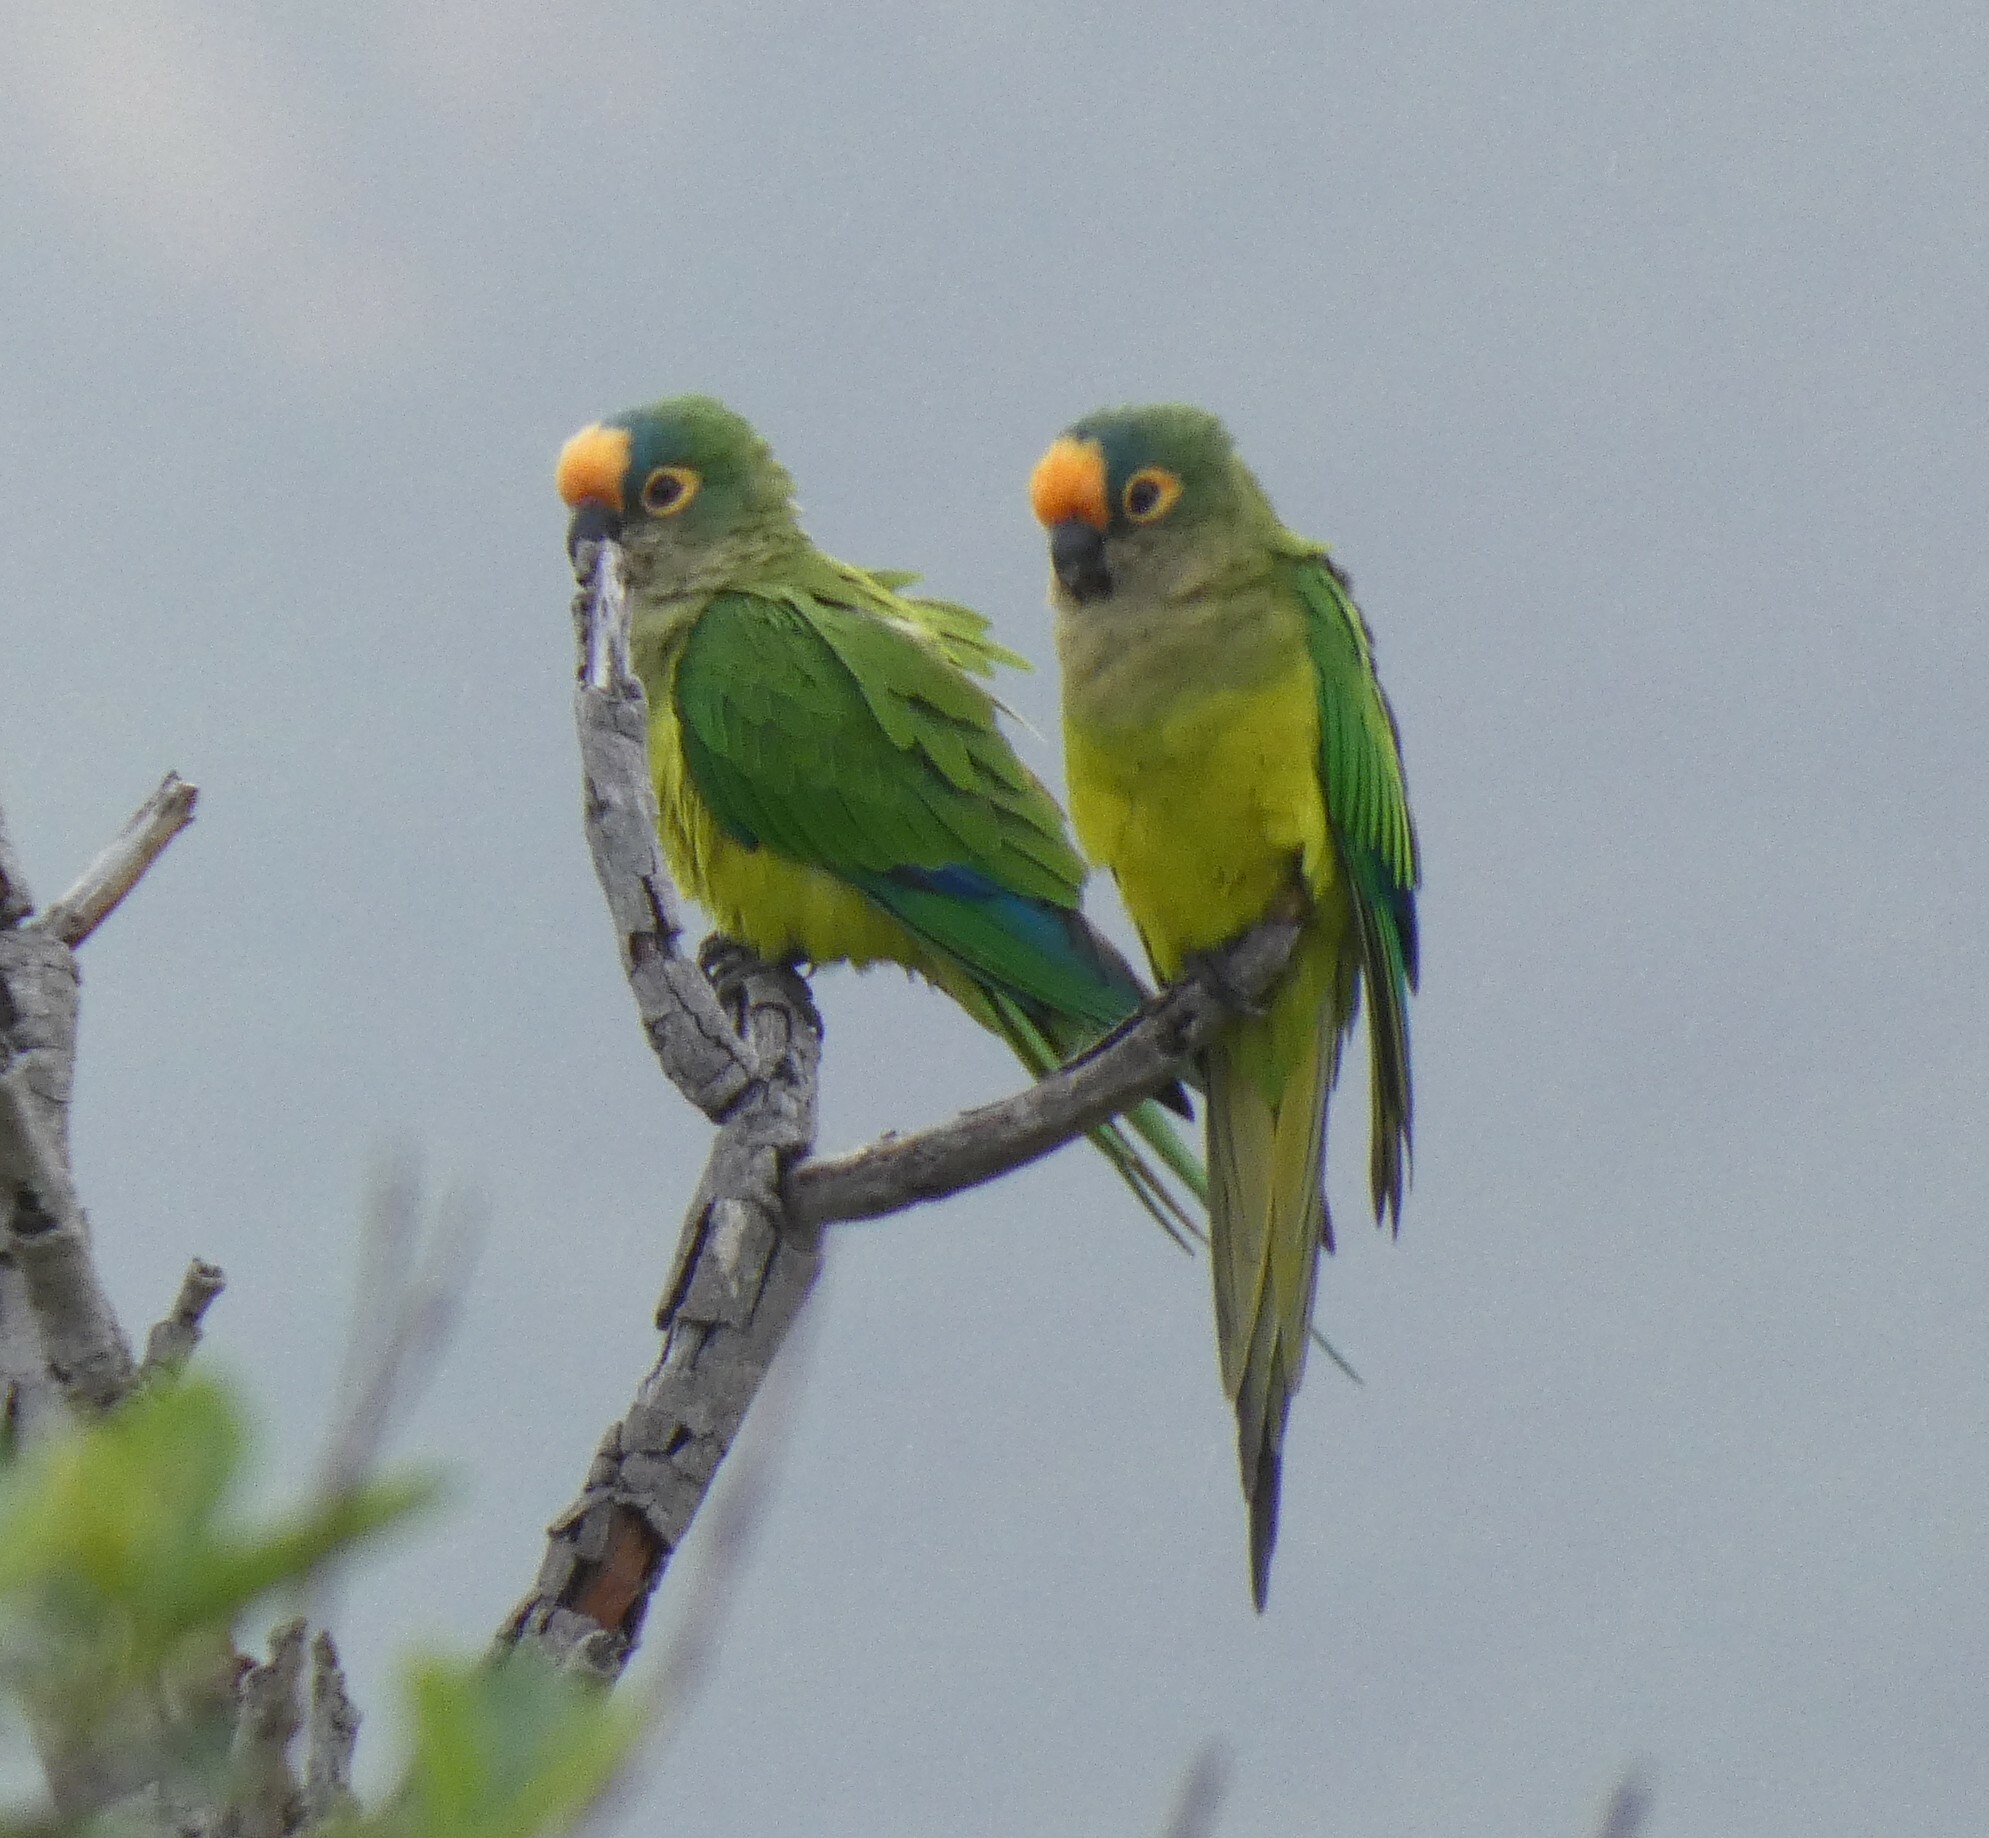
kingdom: Animalia
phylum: Chordata
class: Aves
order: Psittaciformes
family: Psittacidae
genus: Aratinga
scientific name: Aratinga aurea
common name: Peach-fronted parakeet
